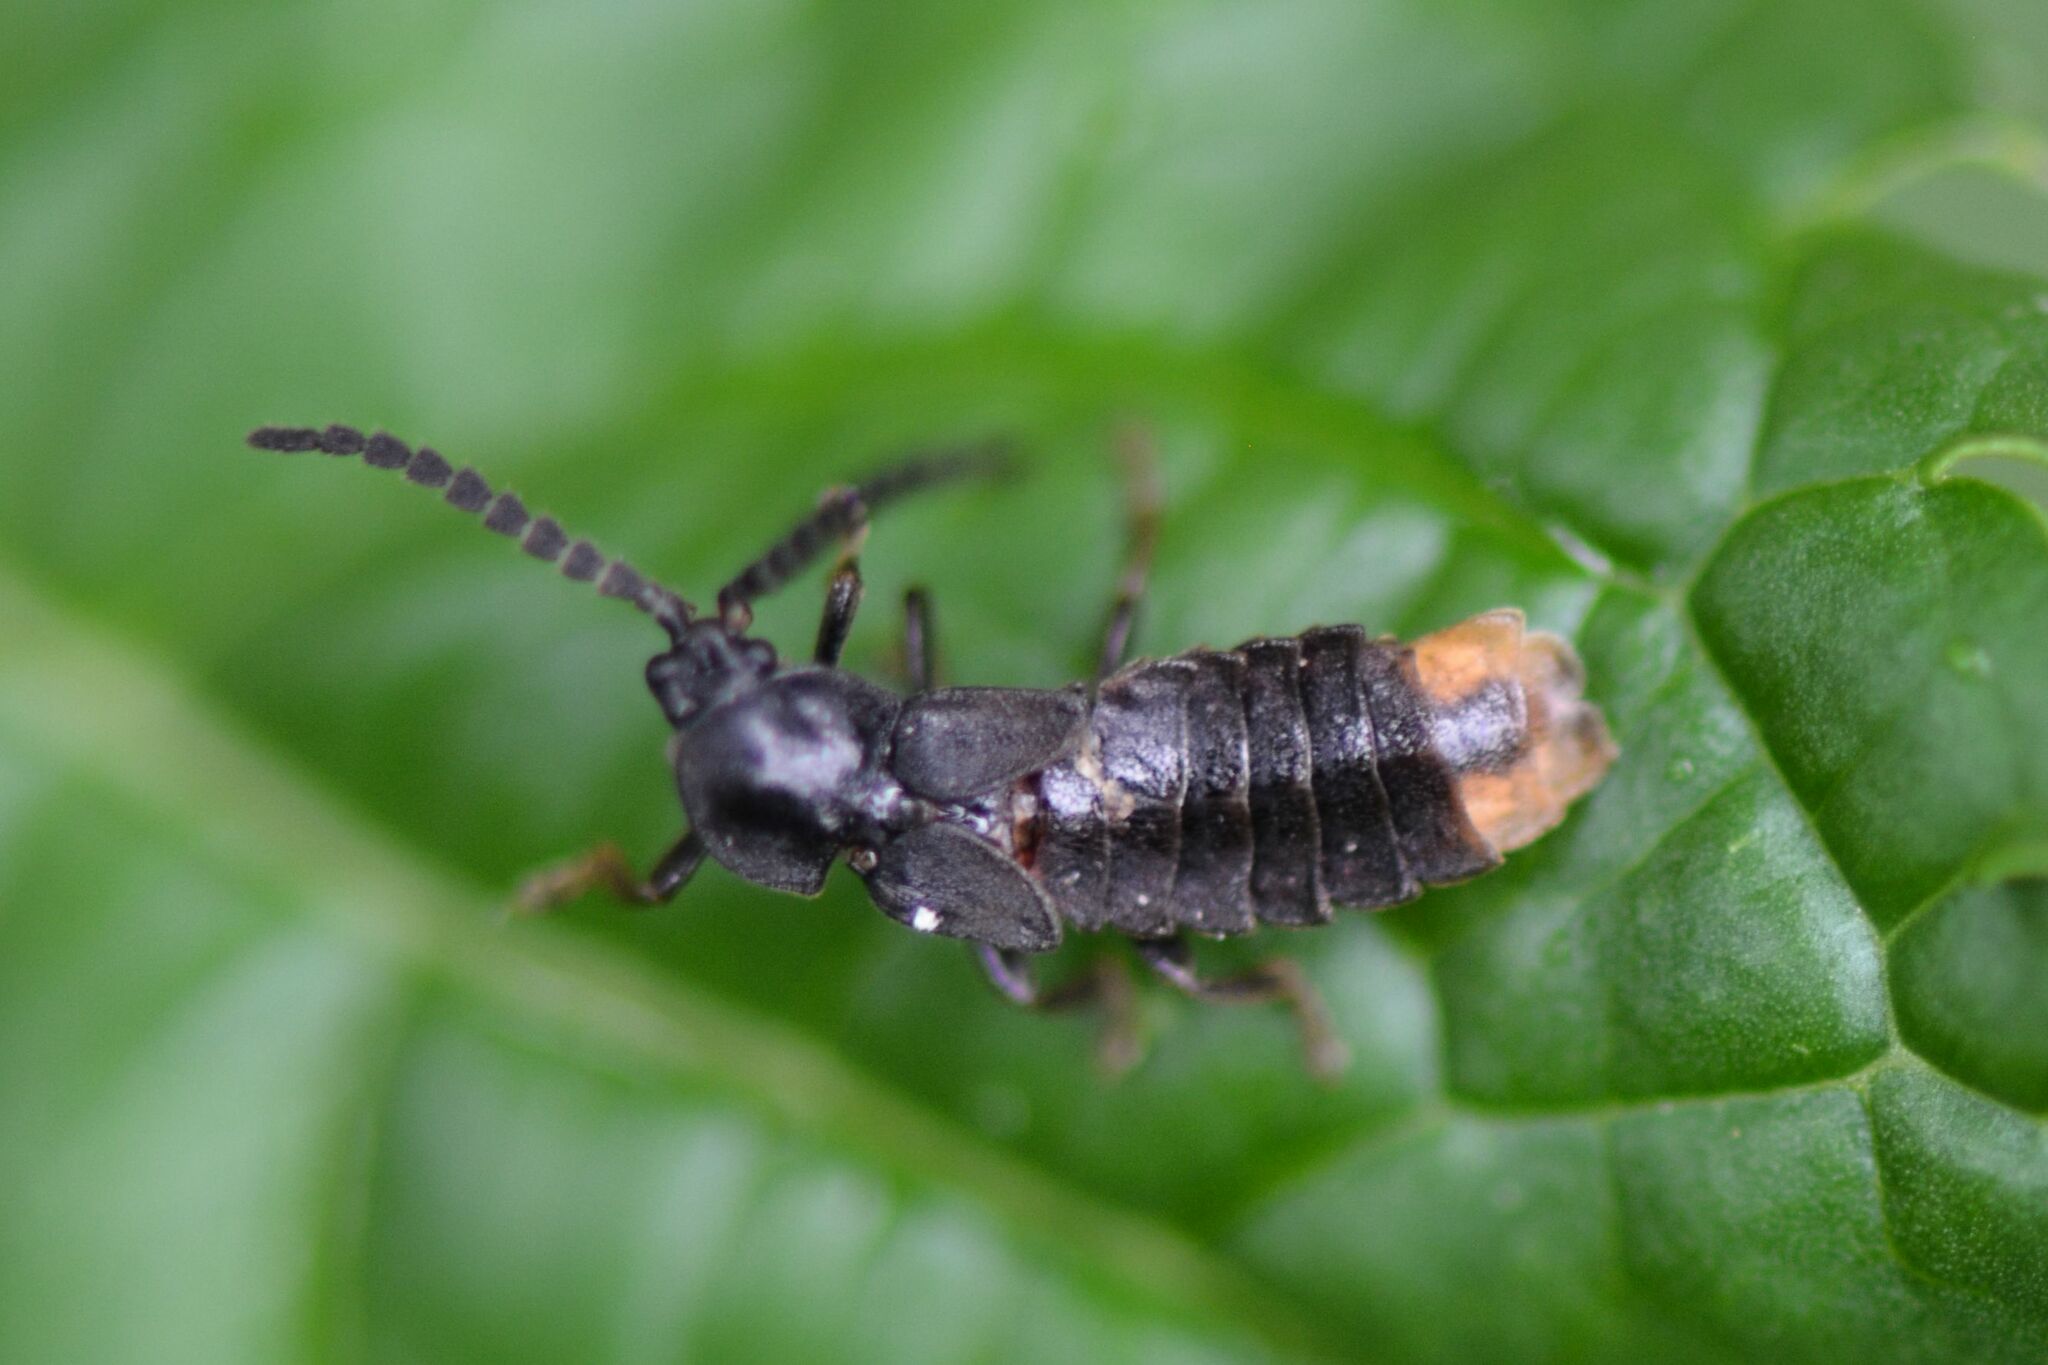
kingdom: Animalia
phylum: Arthropoda
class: Insecta
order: Coleoptera
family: Lampyridae
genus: Phosphaenus
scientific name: Phosphaenus hemipterus
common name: Short-winged firefly
